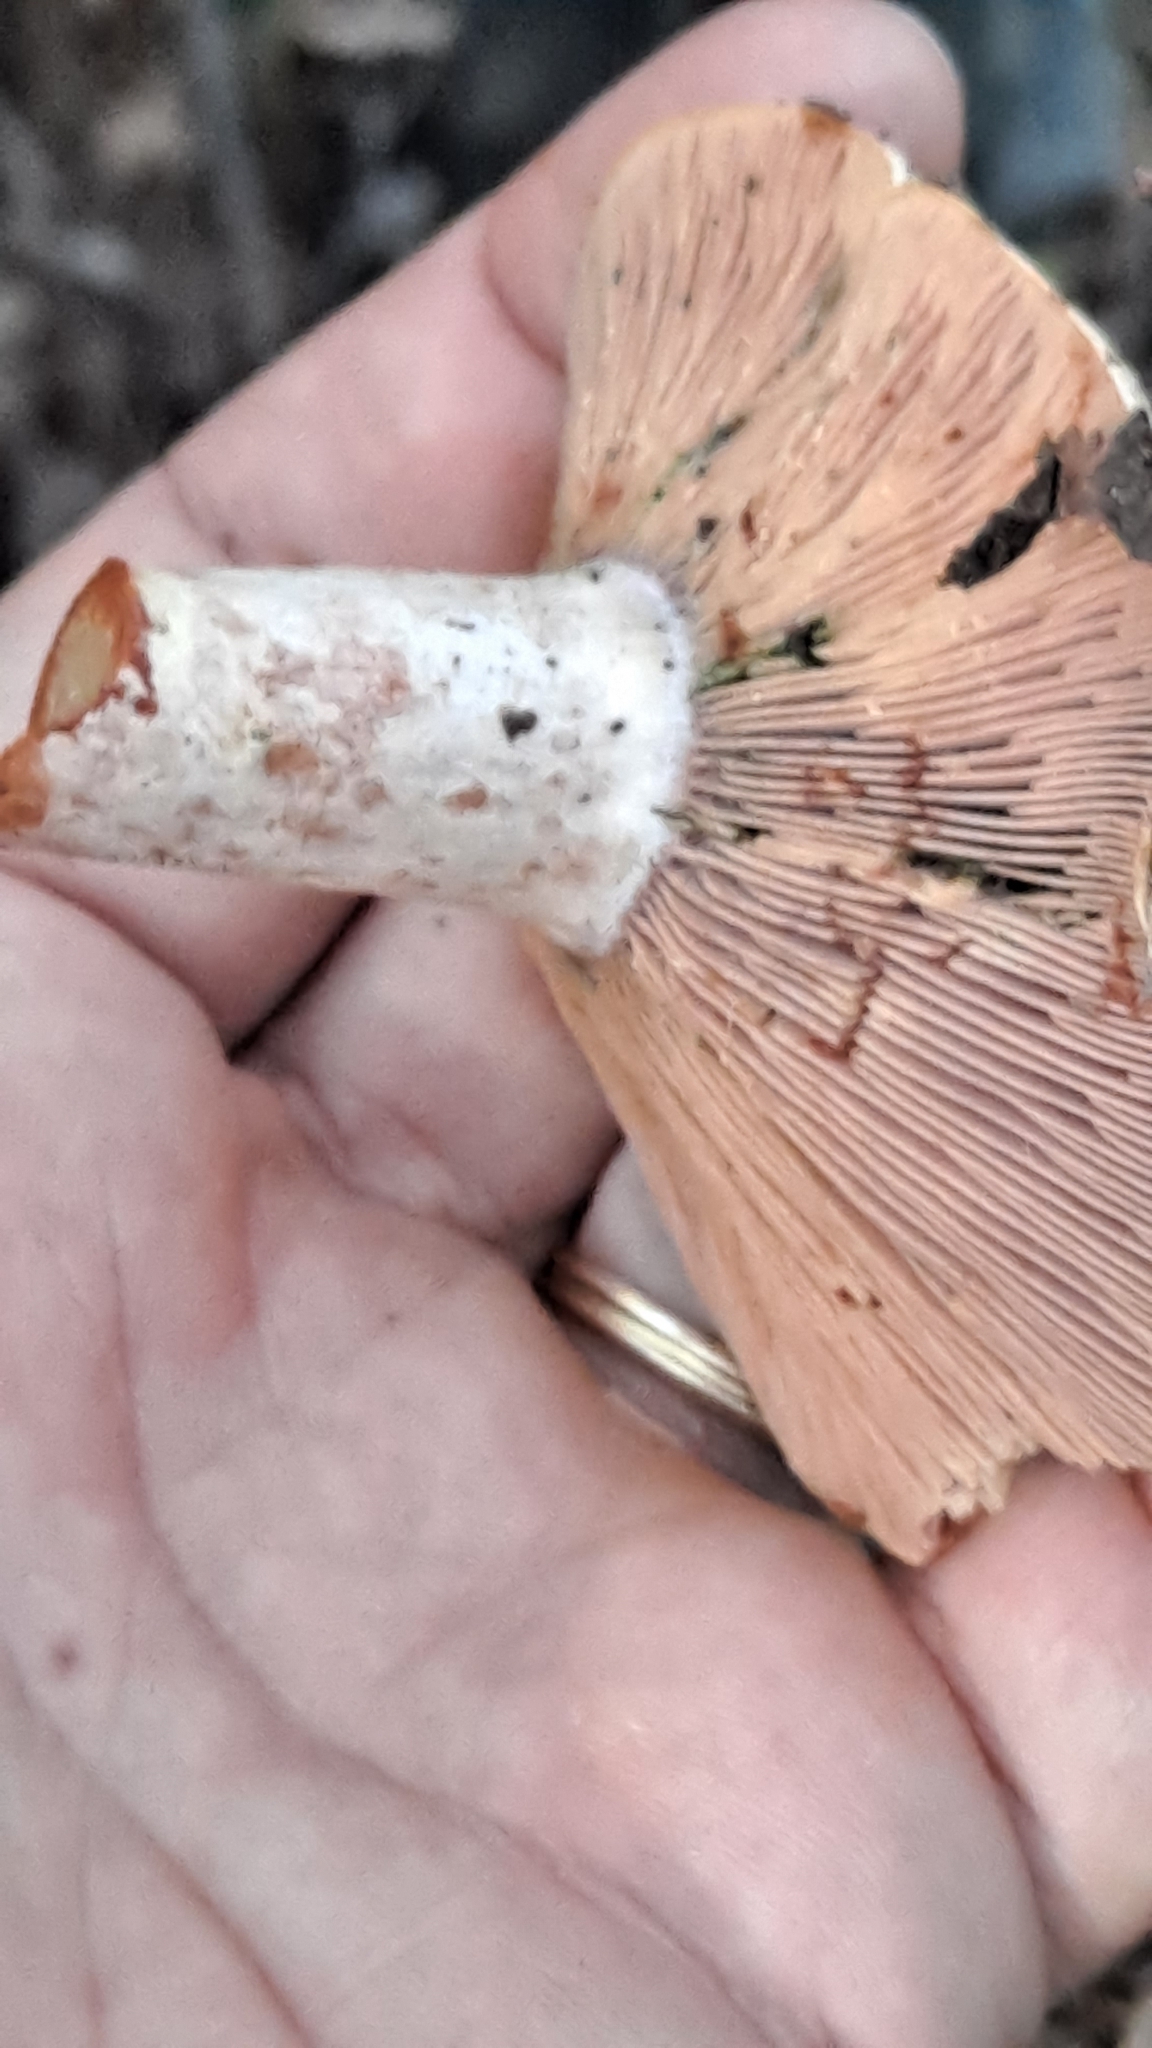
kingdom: Fungi
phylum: Basidiomycota
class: Agaricomycetes
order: Russulales
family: Russulaceae
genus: Lactarius
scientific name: Lactarius sanguifluus
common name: Bloody milkcap
